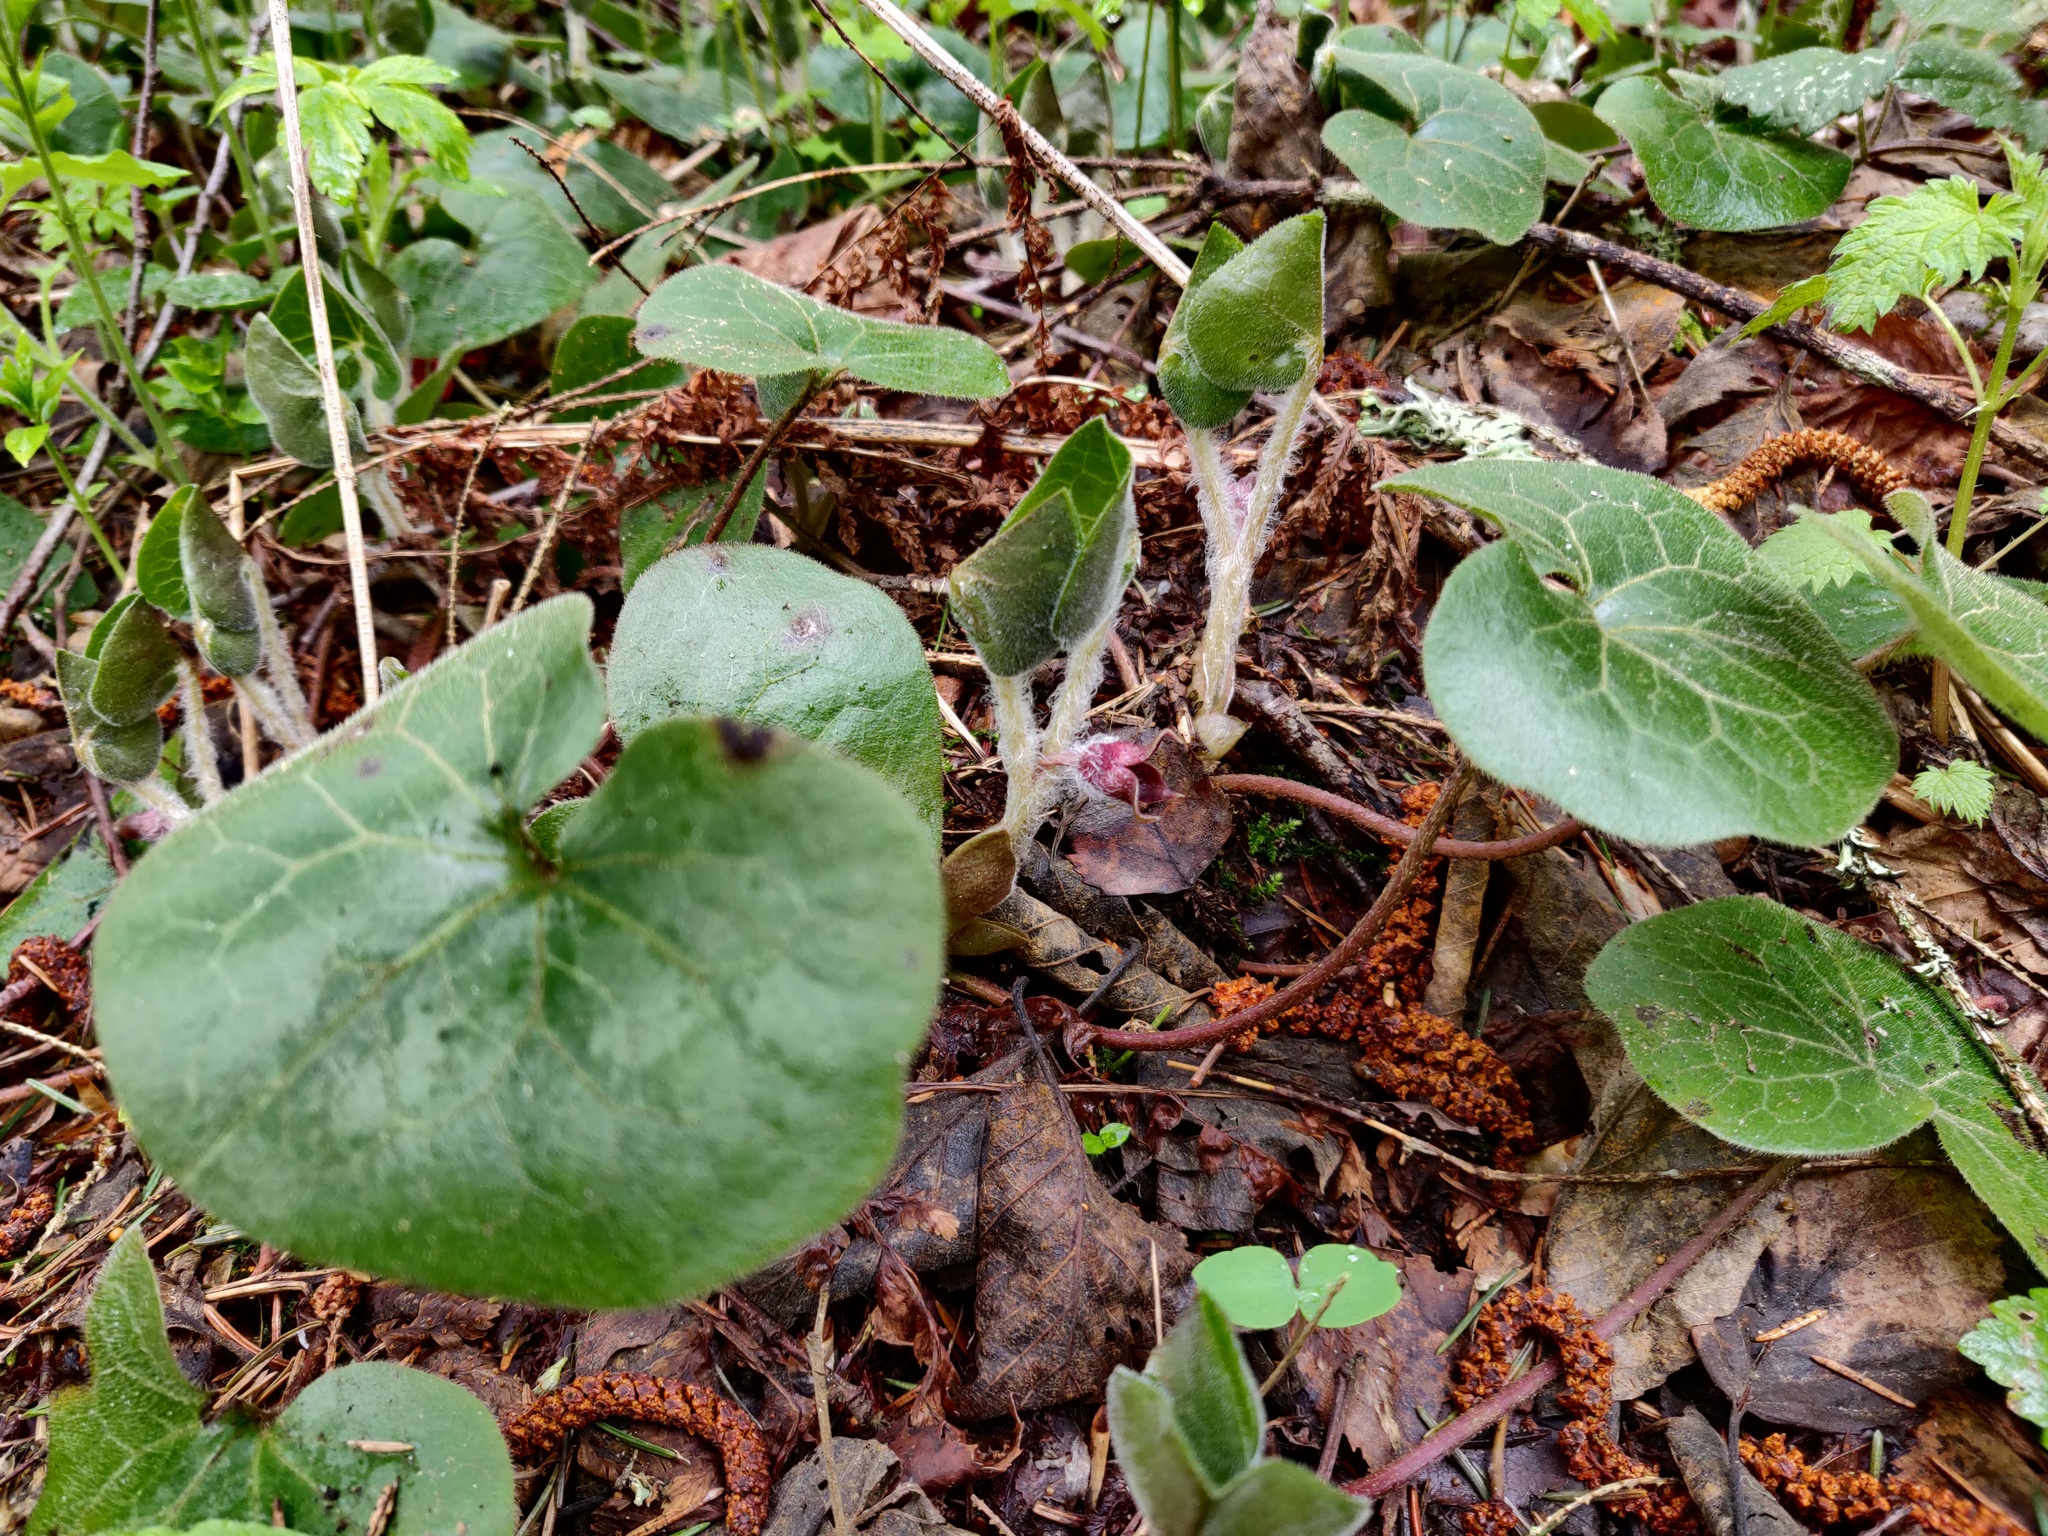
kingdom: Plantae
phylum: Tracheophyta
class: Magnoliopsida
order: Piperales
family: Aristolochiaceae
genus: Asarum
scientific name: Asarum europaeum
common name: Asarabacca
